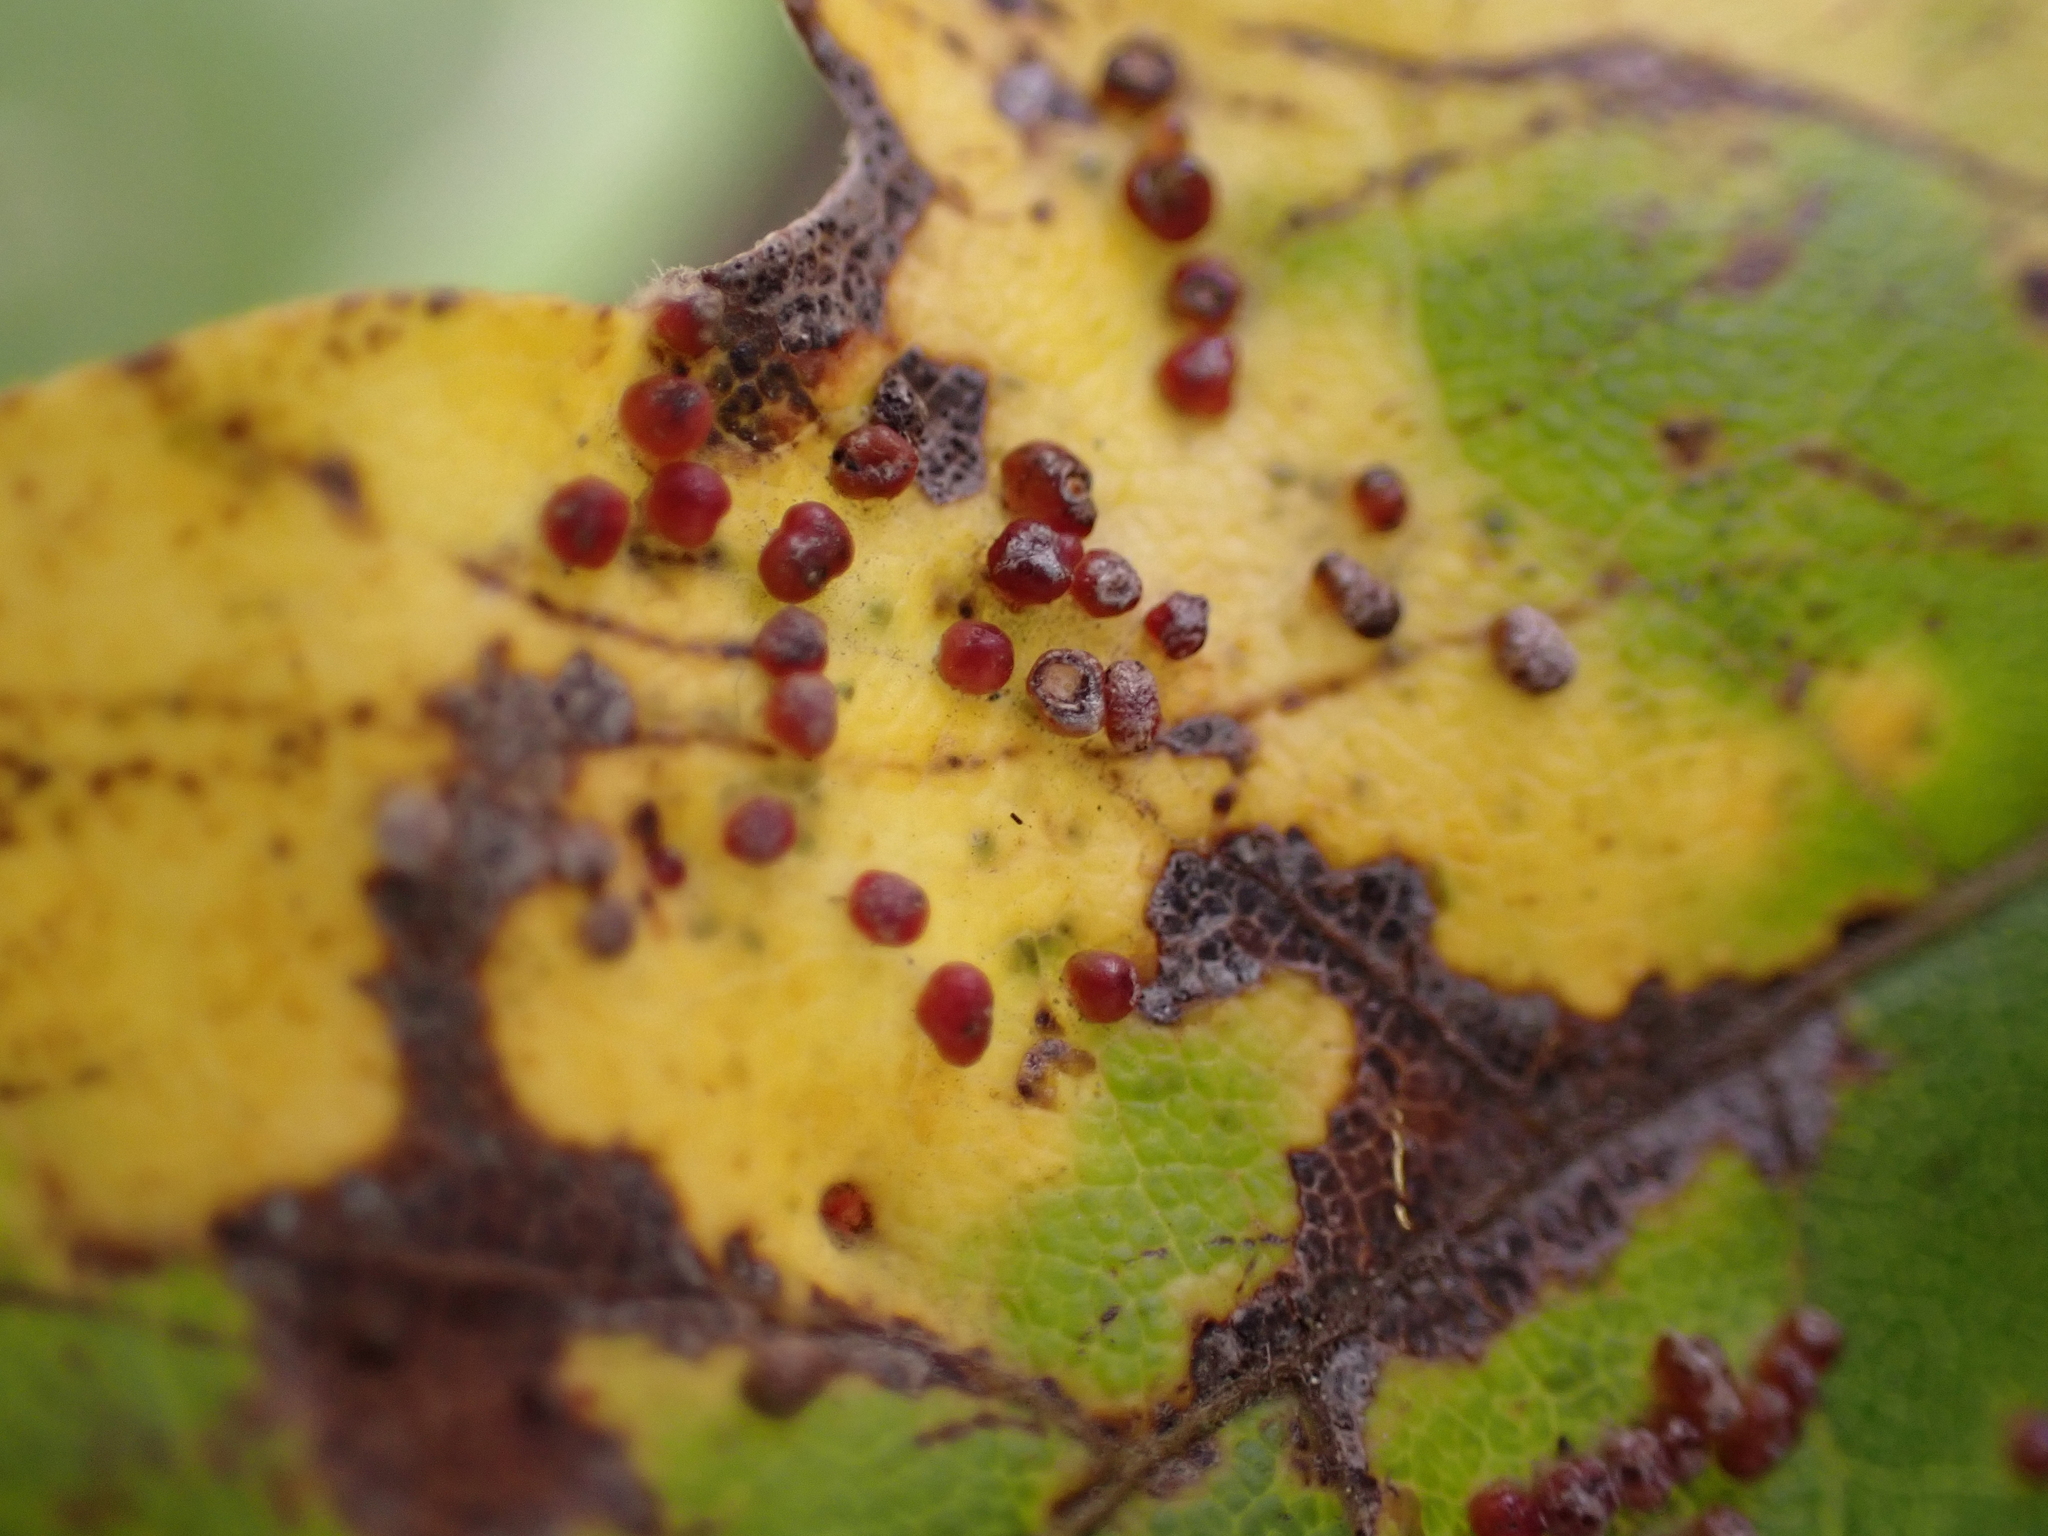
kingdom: Animalia
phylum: Arthropoda
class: Arachnida
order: Trombidiformes
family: Eriophyidae
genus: Aceria
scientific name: Aceria myriadeum
